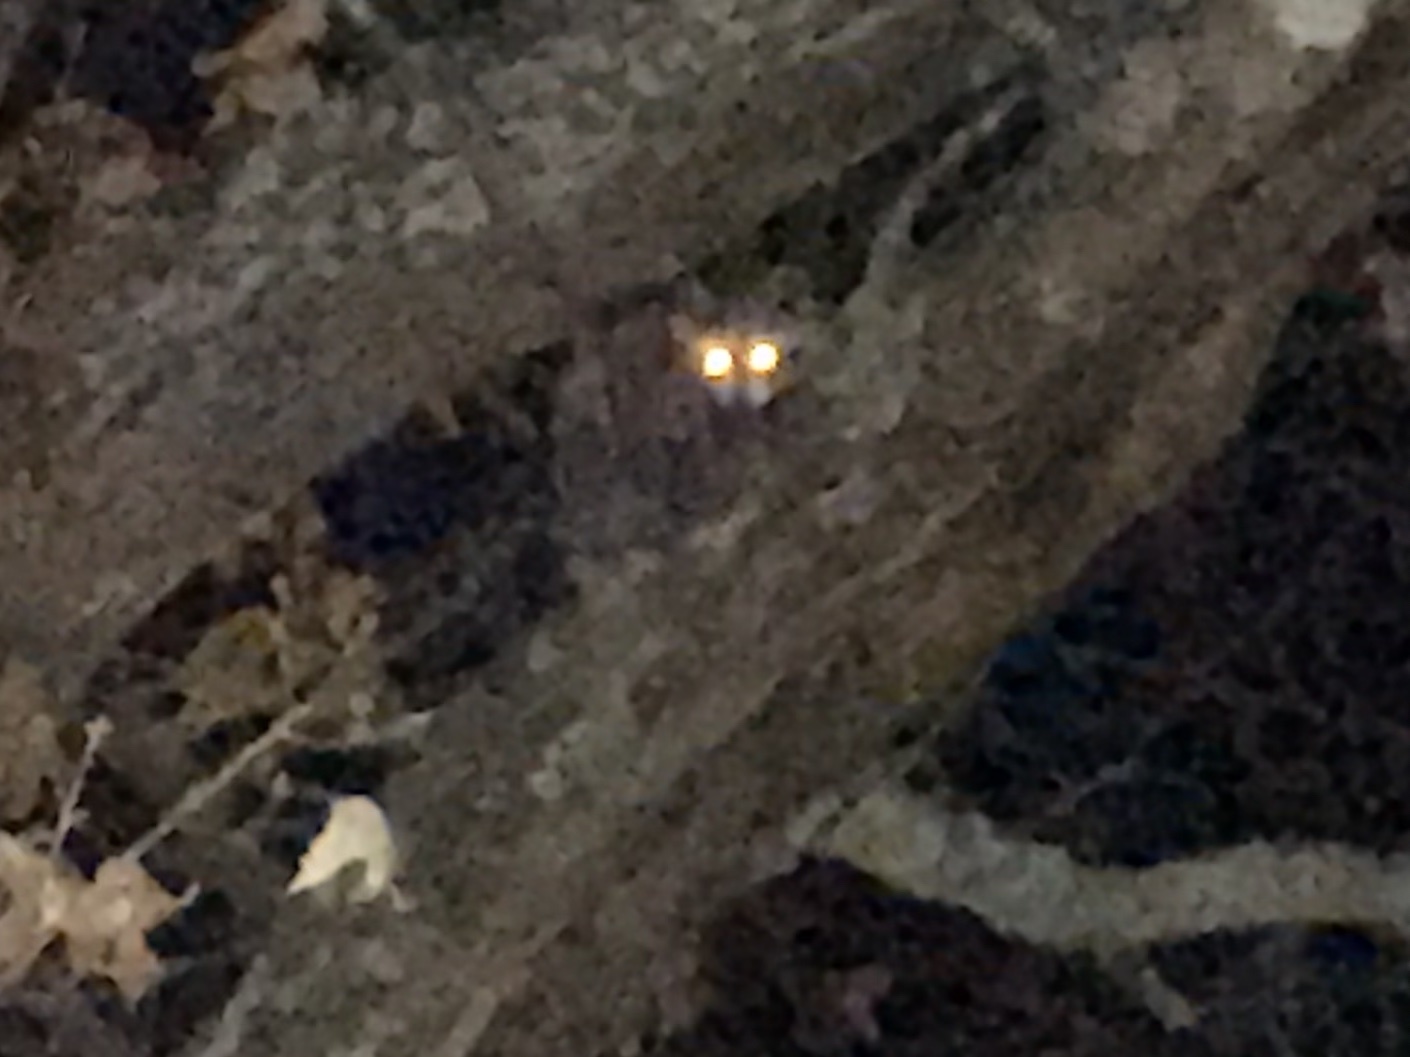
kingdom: Animalia
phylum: Chordata
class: Mammalia
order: Carnivora
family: Procyonidae
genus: Procyon
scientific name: Procyon lotor
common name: Raccoon
